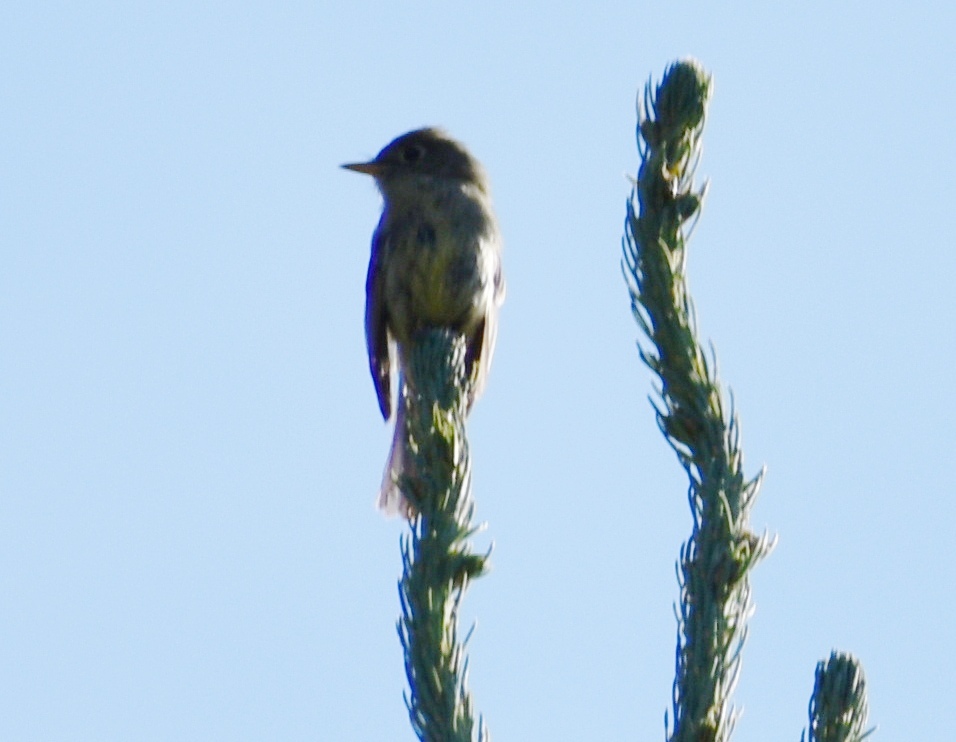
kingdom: Animalia
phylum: Chordata
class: Aves
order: Passeriformes
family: Tyrannidae
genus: Empidonax
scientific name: Empidonax difficilis
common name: Pacific-slope flycatcher
